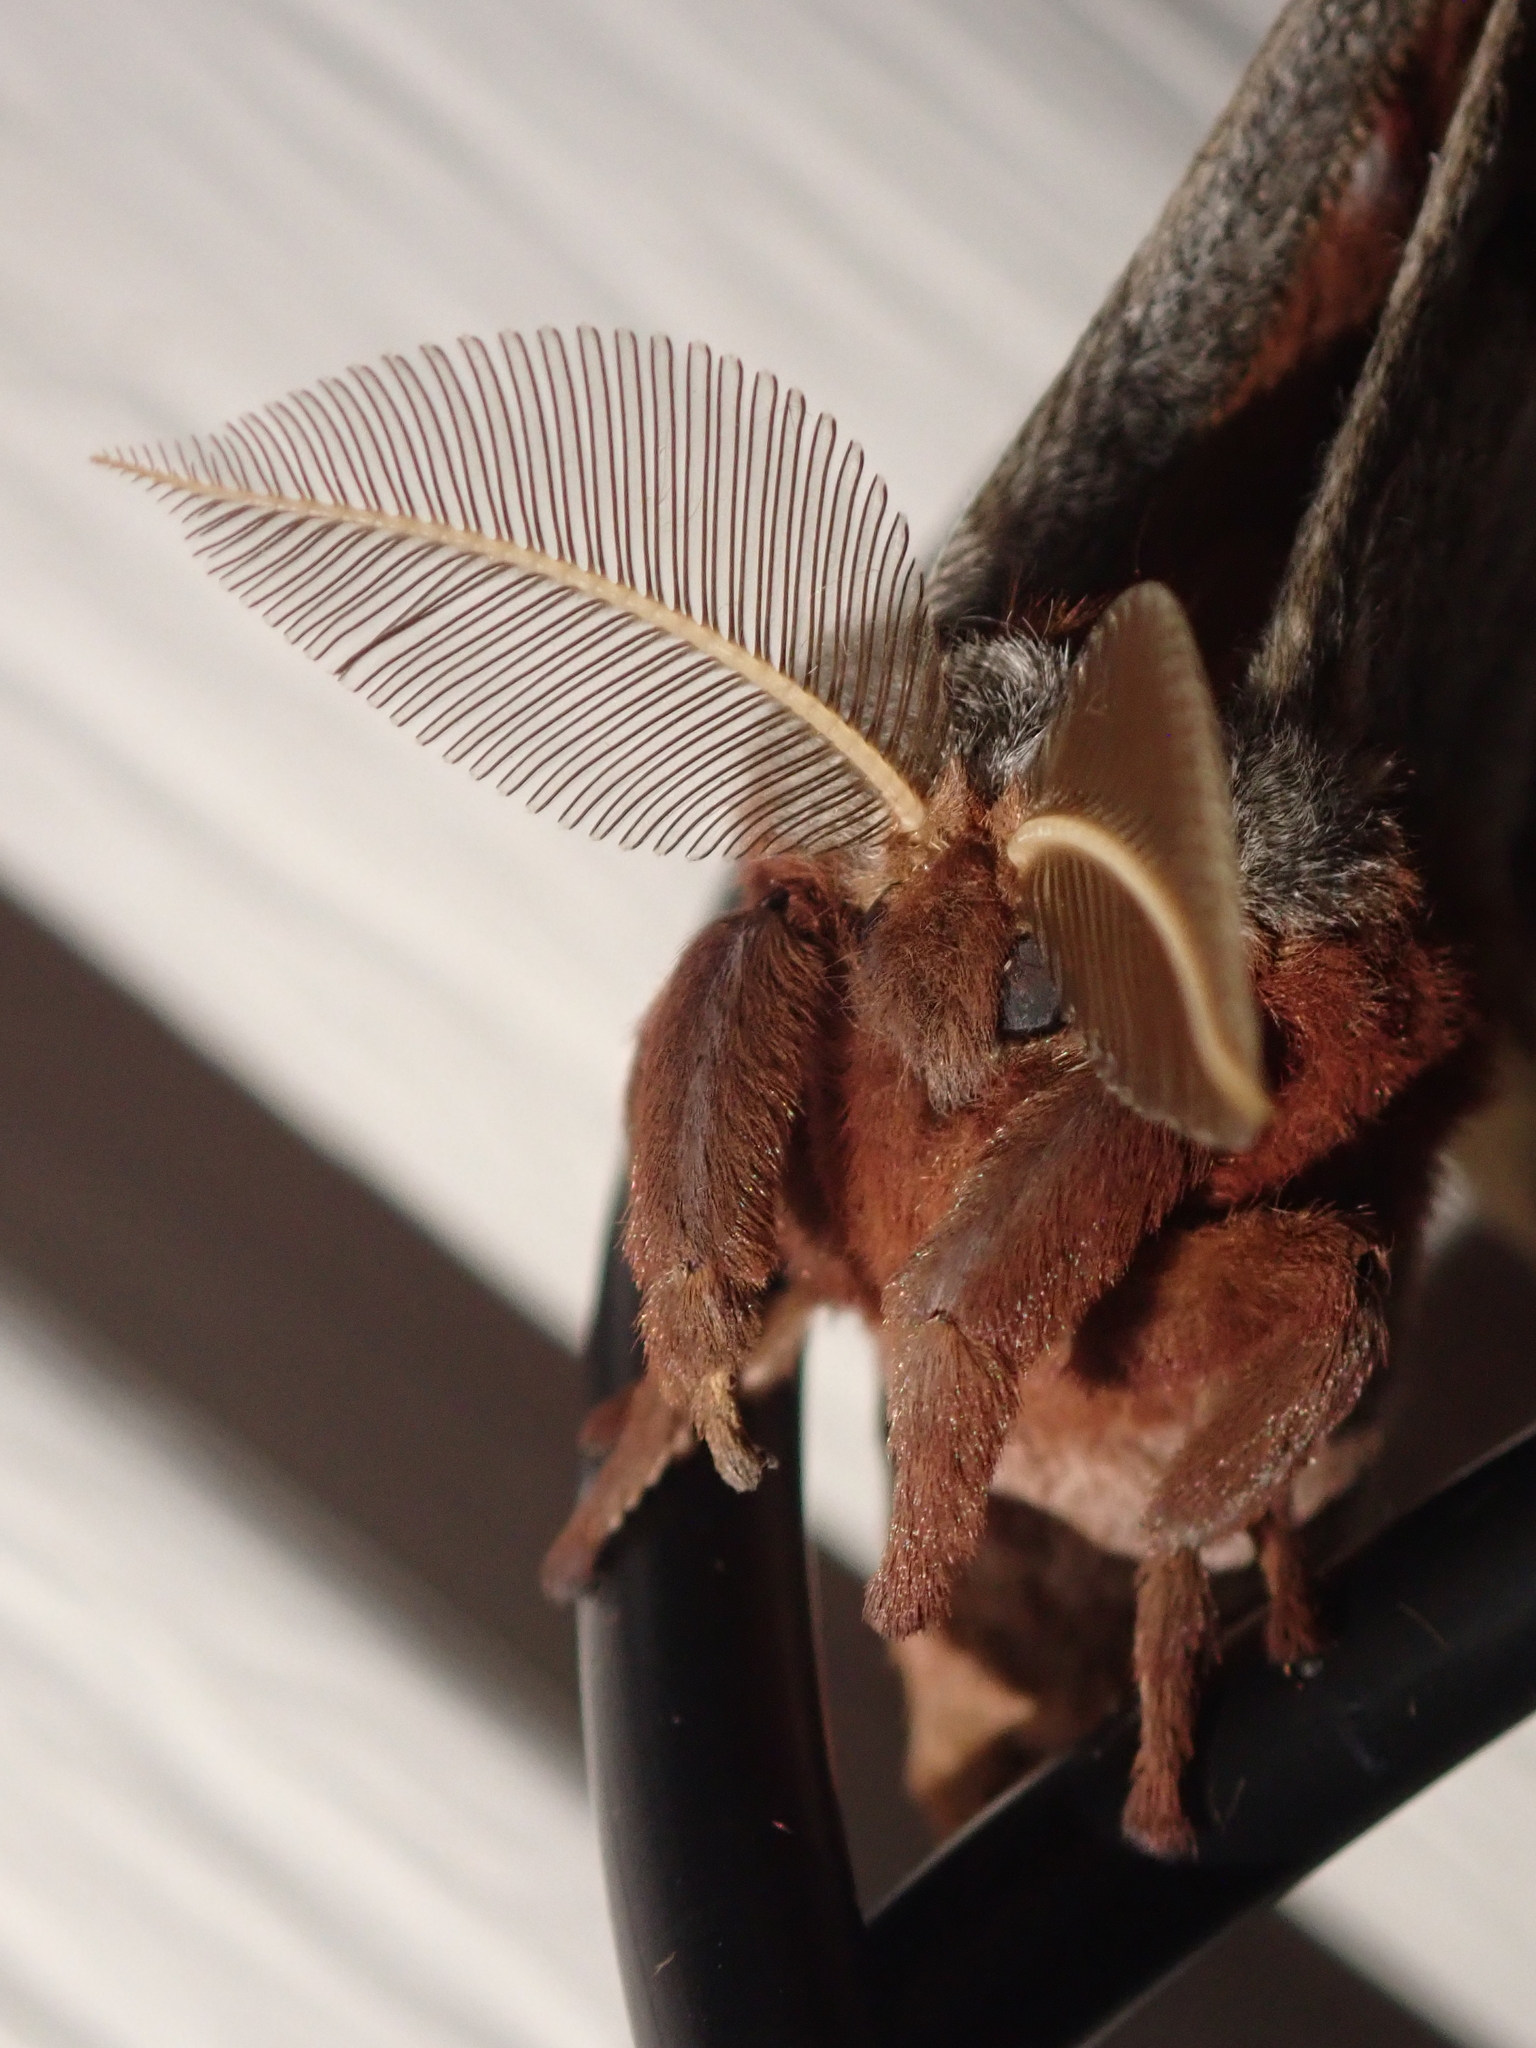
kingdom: Animalia
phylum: Arthropoda
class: Insecta
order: Lepidoptera
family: Saturniidae
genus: Antheraea
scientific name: Antheraea polyphemus
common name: Polyphemus moth
